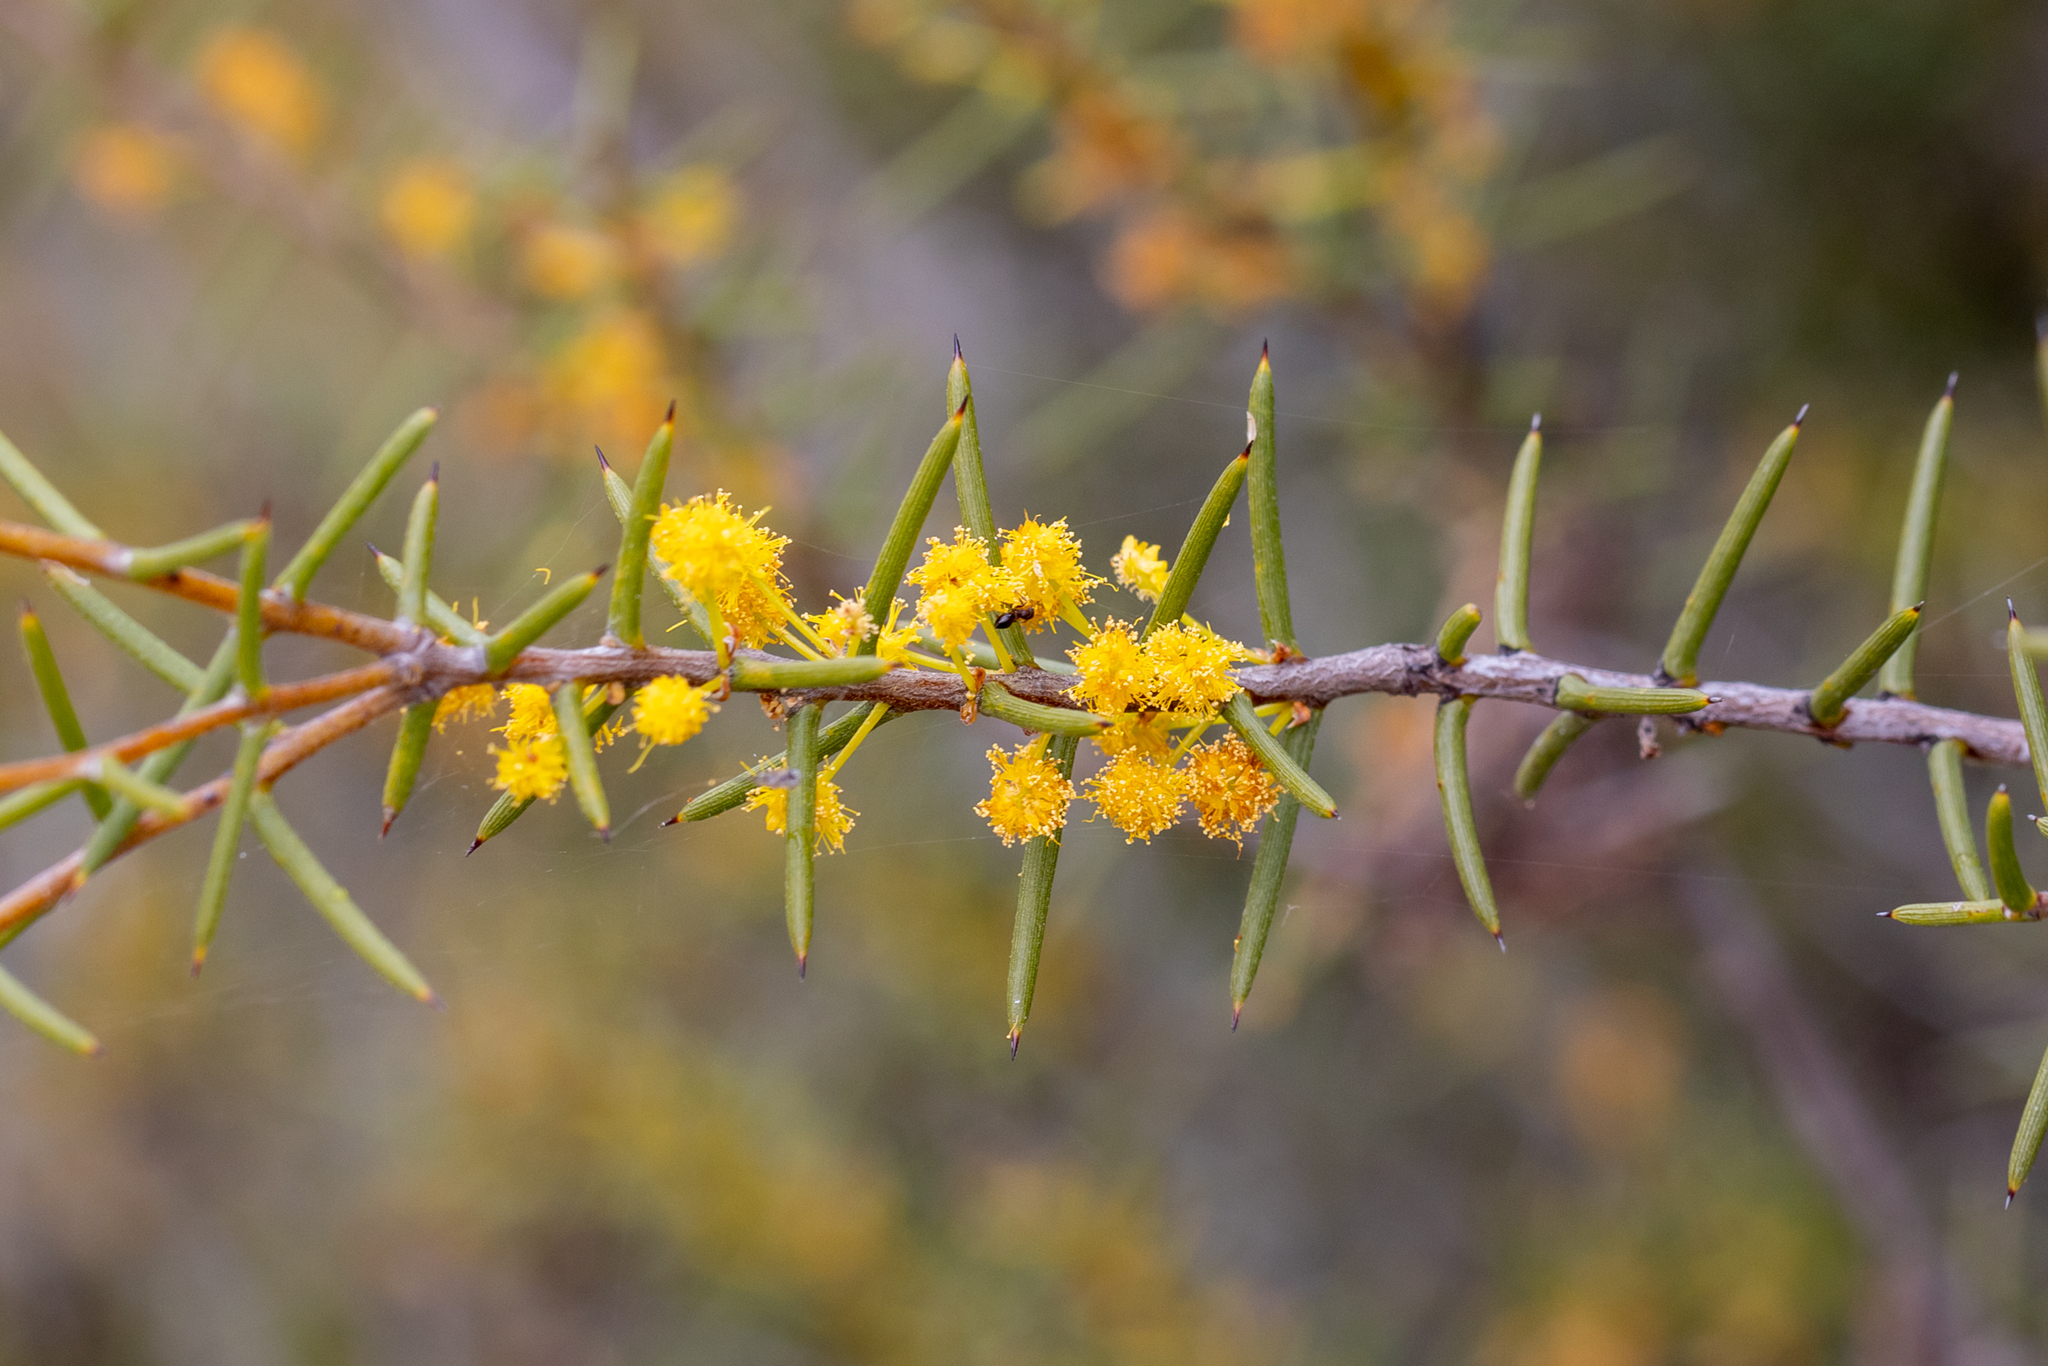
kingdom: Plantae
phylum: Tracheophyta
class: Magnoliopsida
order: Fabales
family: Fabaceae
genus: Acacia
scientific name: Acacia nyssophylla
